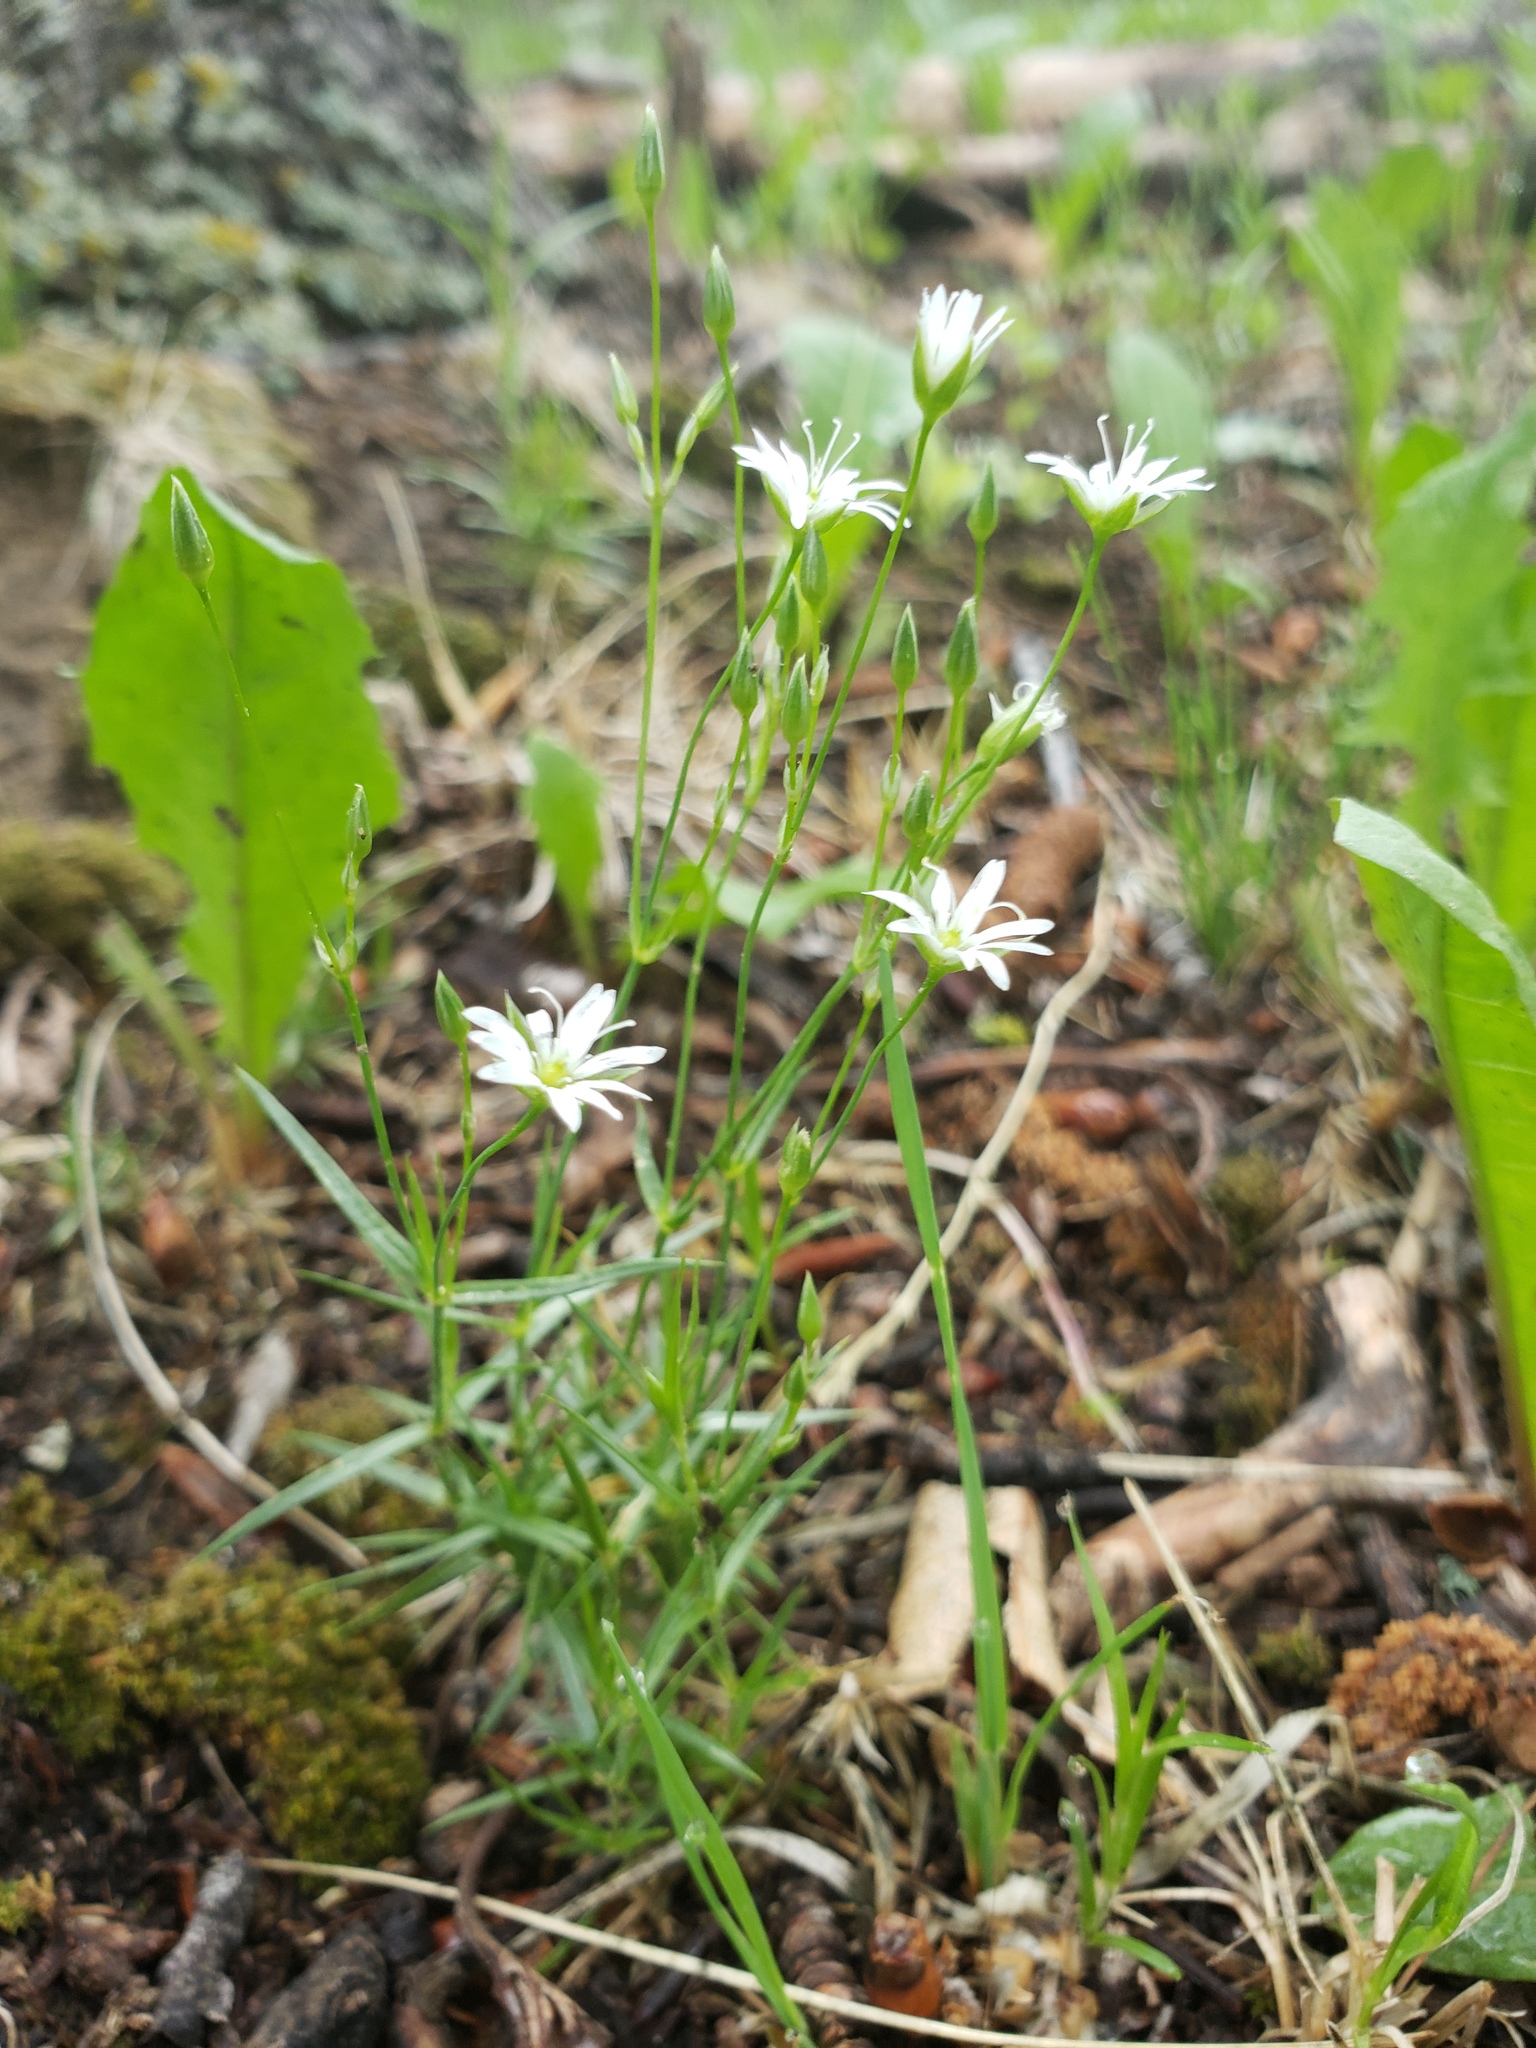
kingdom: Plantae
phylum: Tracheophyta
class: Magnoliopsida
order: Caryophyllales
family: Caryophyllaceae
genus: Stellaria
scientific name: Stellaria longifolia
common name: Long-leaved chickweed
